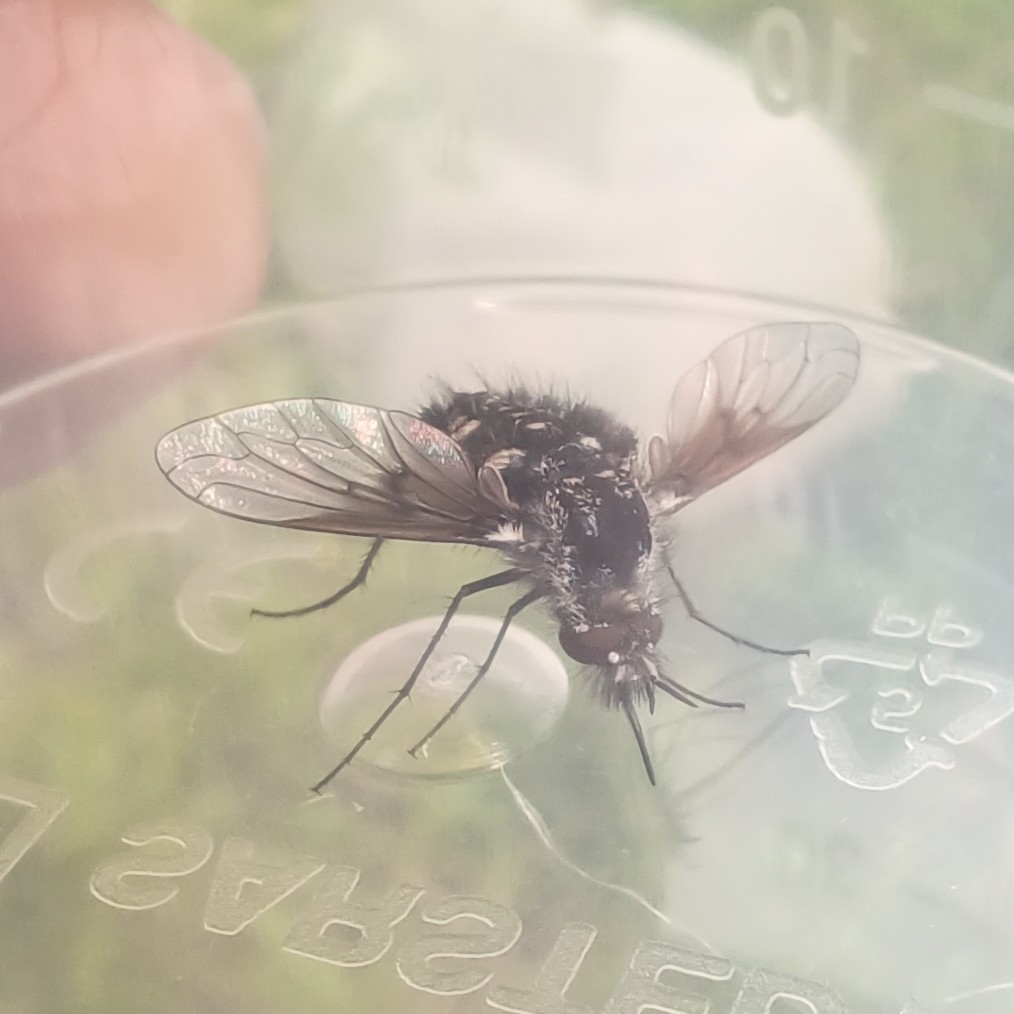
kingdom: Animalia
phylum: Arthropoda
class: Insecta
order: Diptera
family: Bombyliidae
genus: Bombylella
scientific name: Bombylella atra
